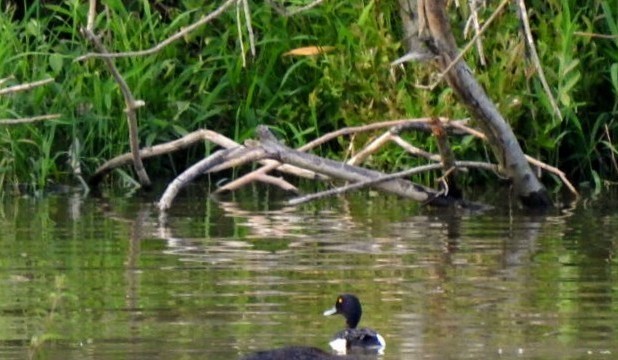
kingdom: Animalia
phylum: Chordata
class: Aves
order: Anseriformes
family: Anatidae
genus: Aythya
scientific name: Aythya fuligula
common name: Tufted duck
